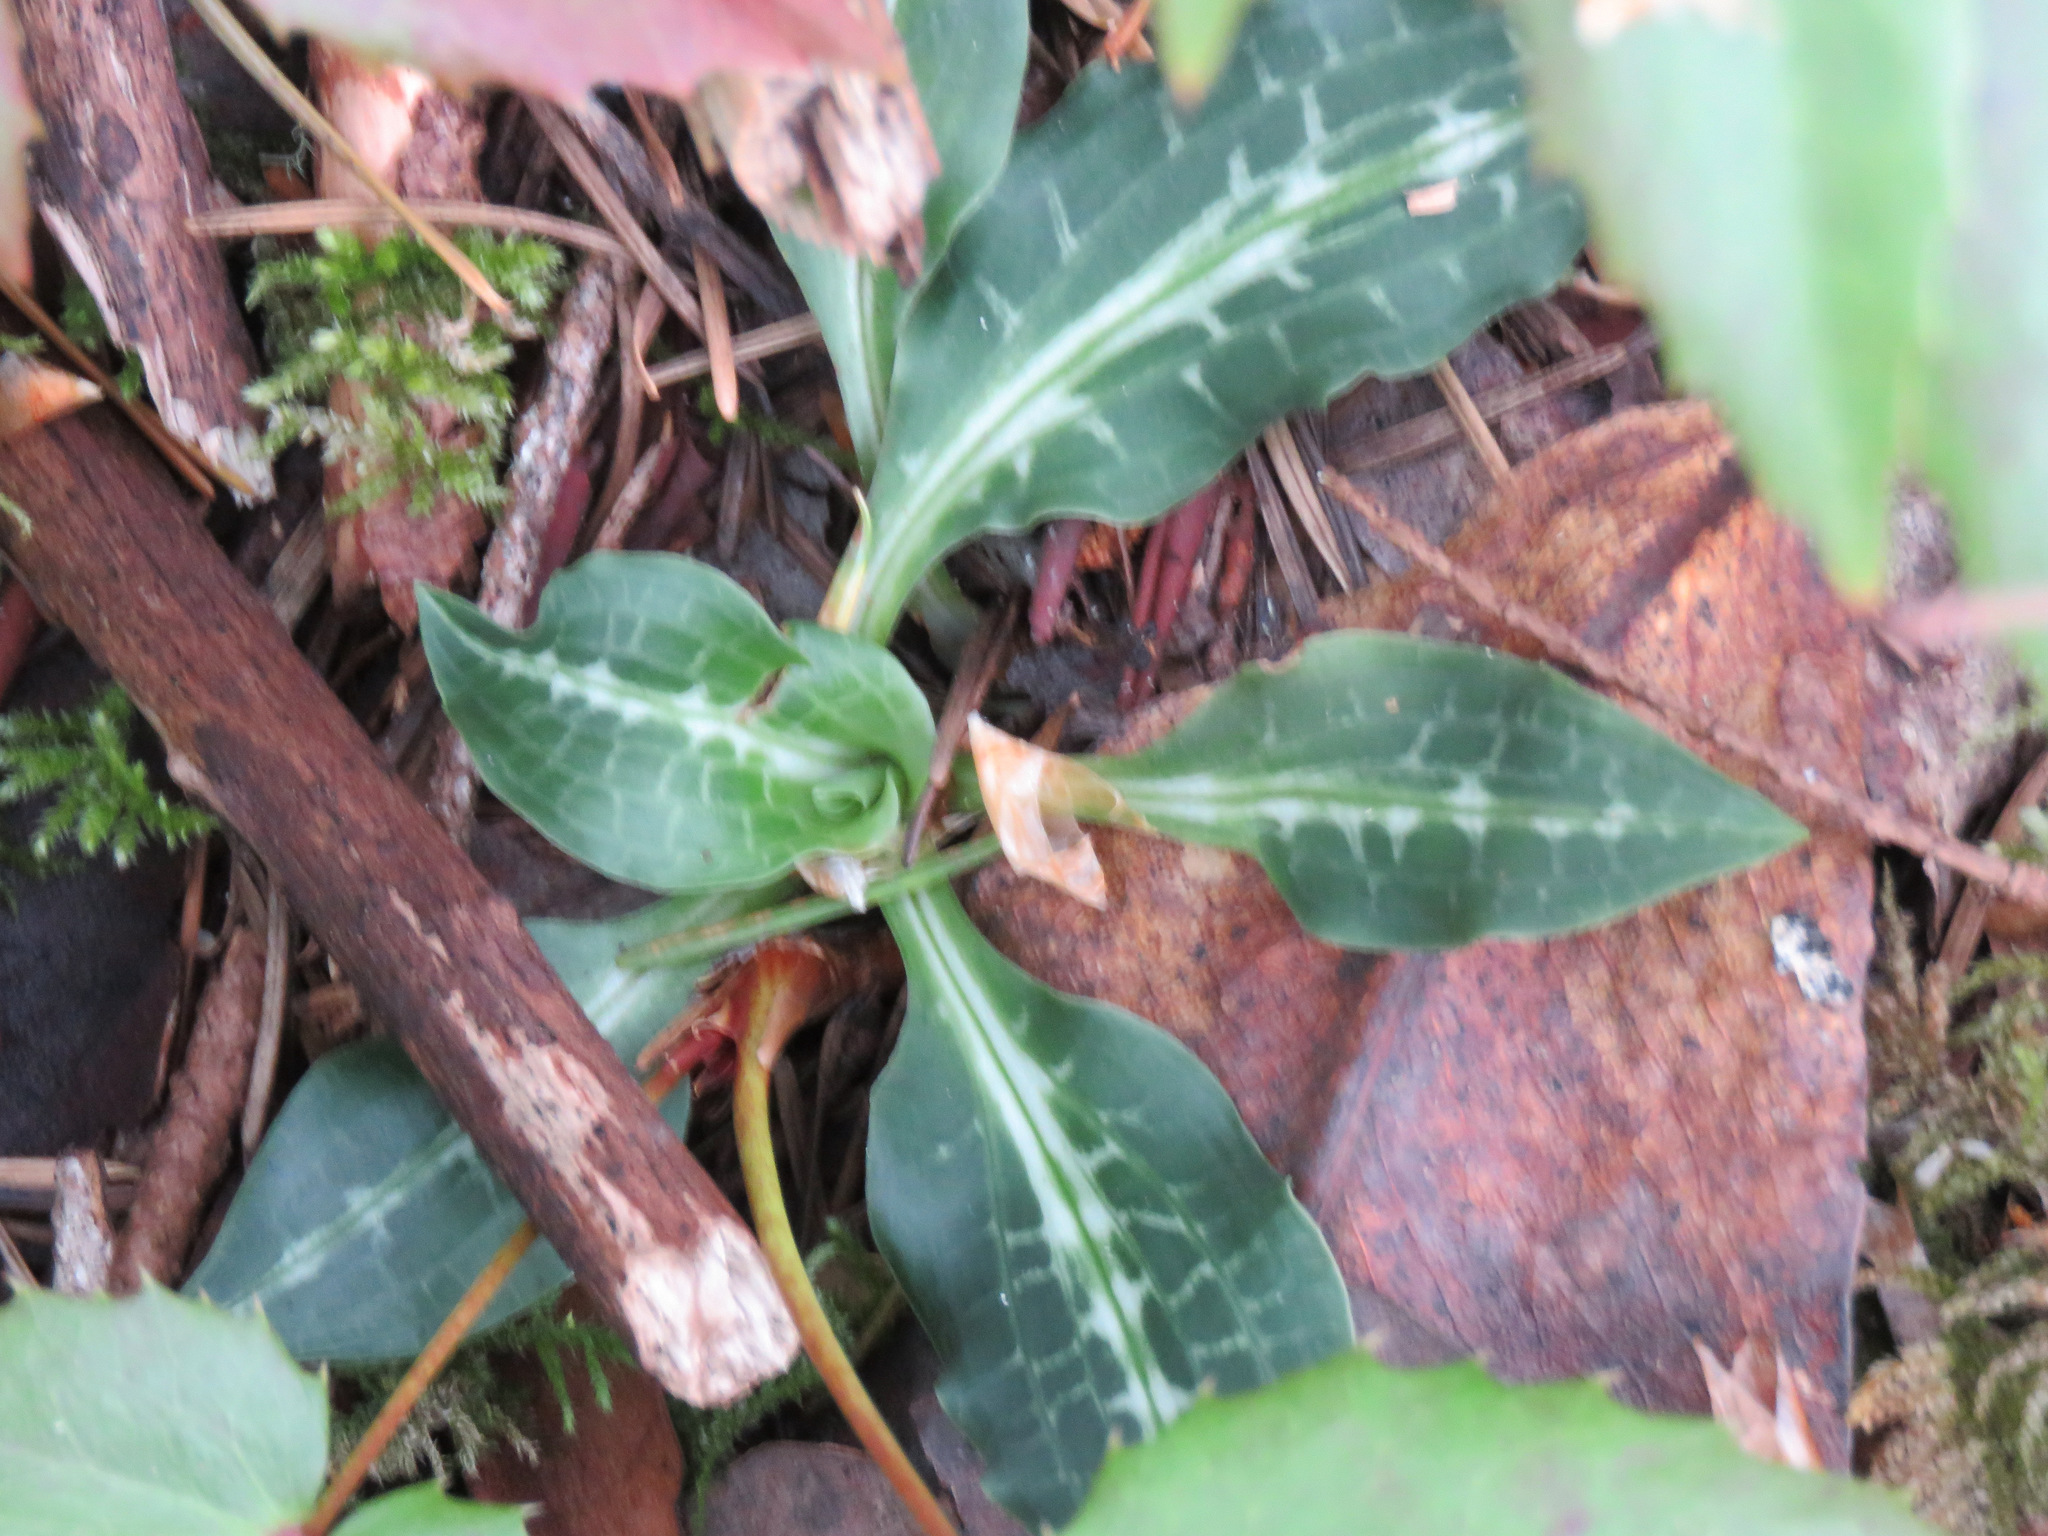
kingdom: Plantae
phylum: Tracheophyta
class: Liliopsida
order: Asparagales
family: Orchidaceae
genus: Goodyera
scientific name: Goodyera oblongifolia
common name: Giant rattlesnake-plantain
